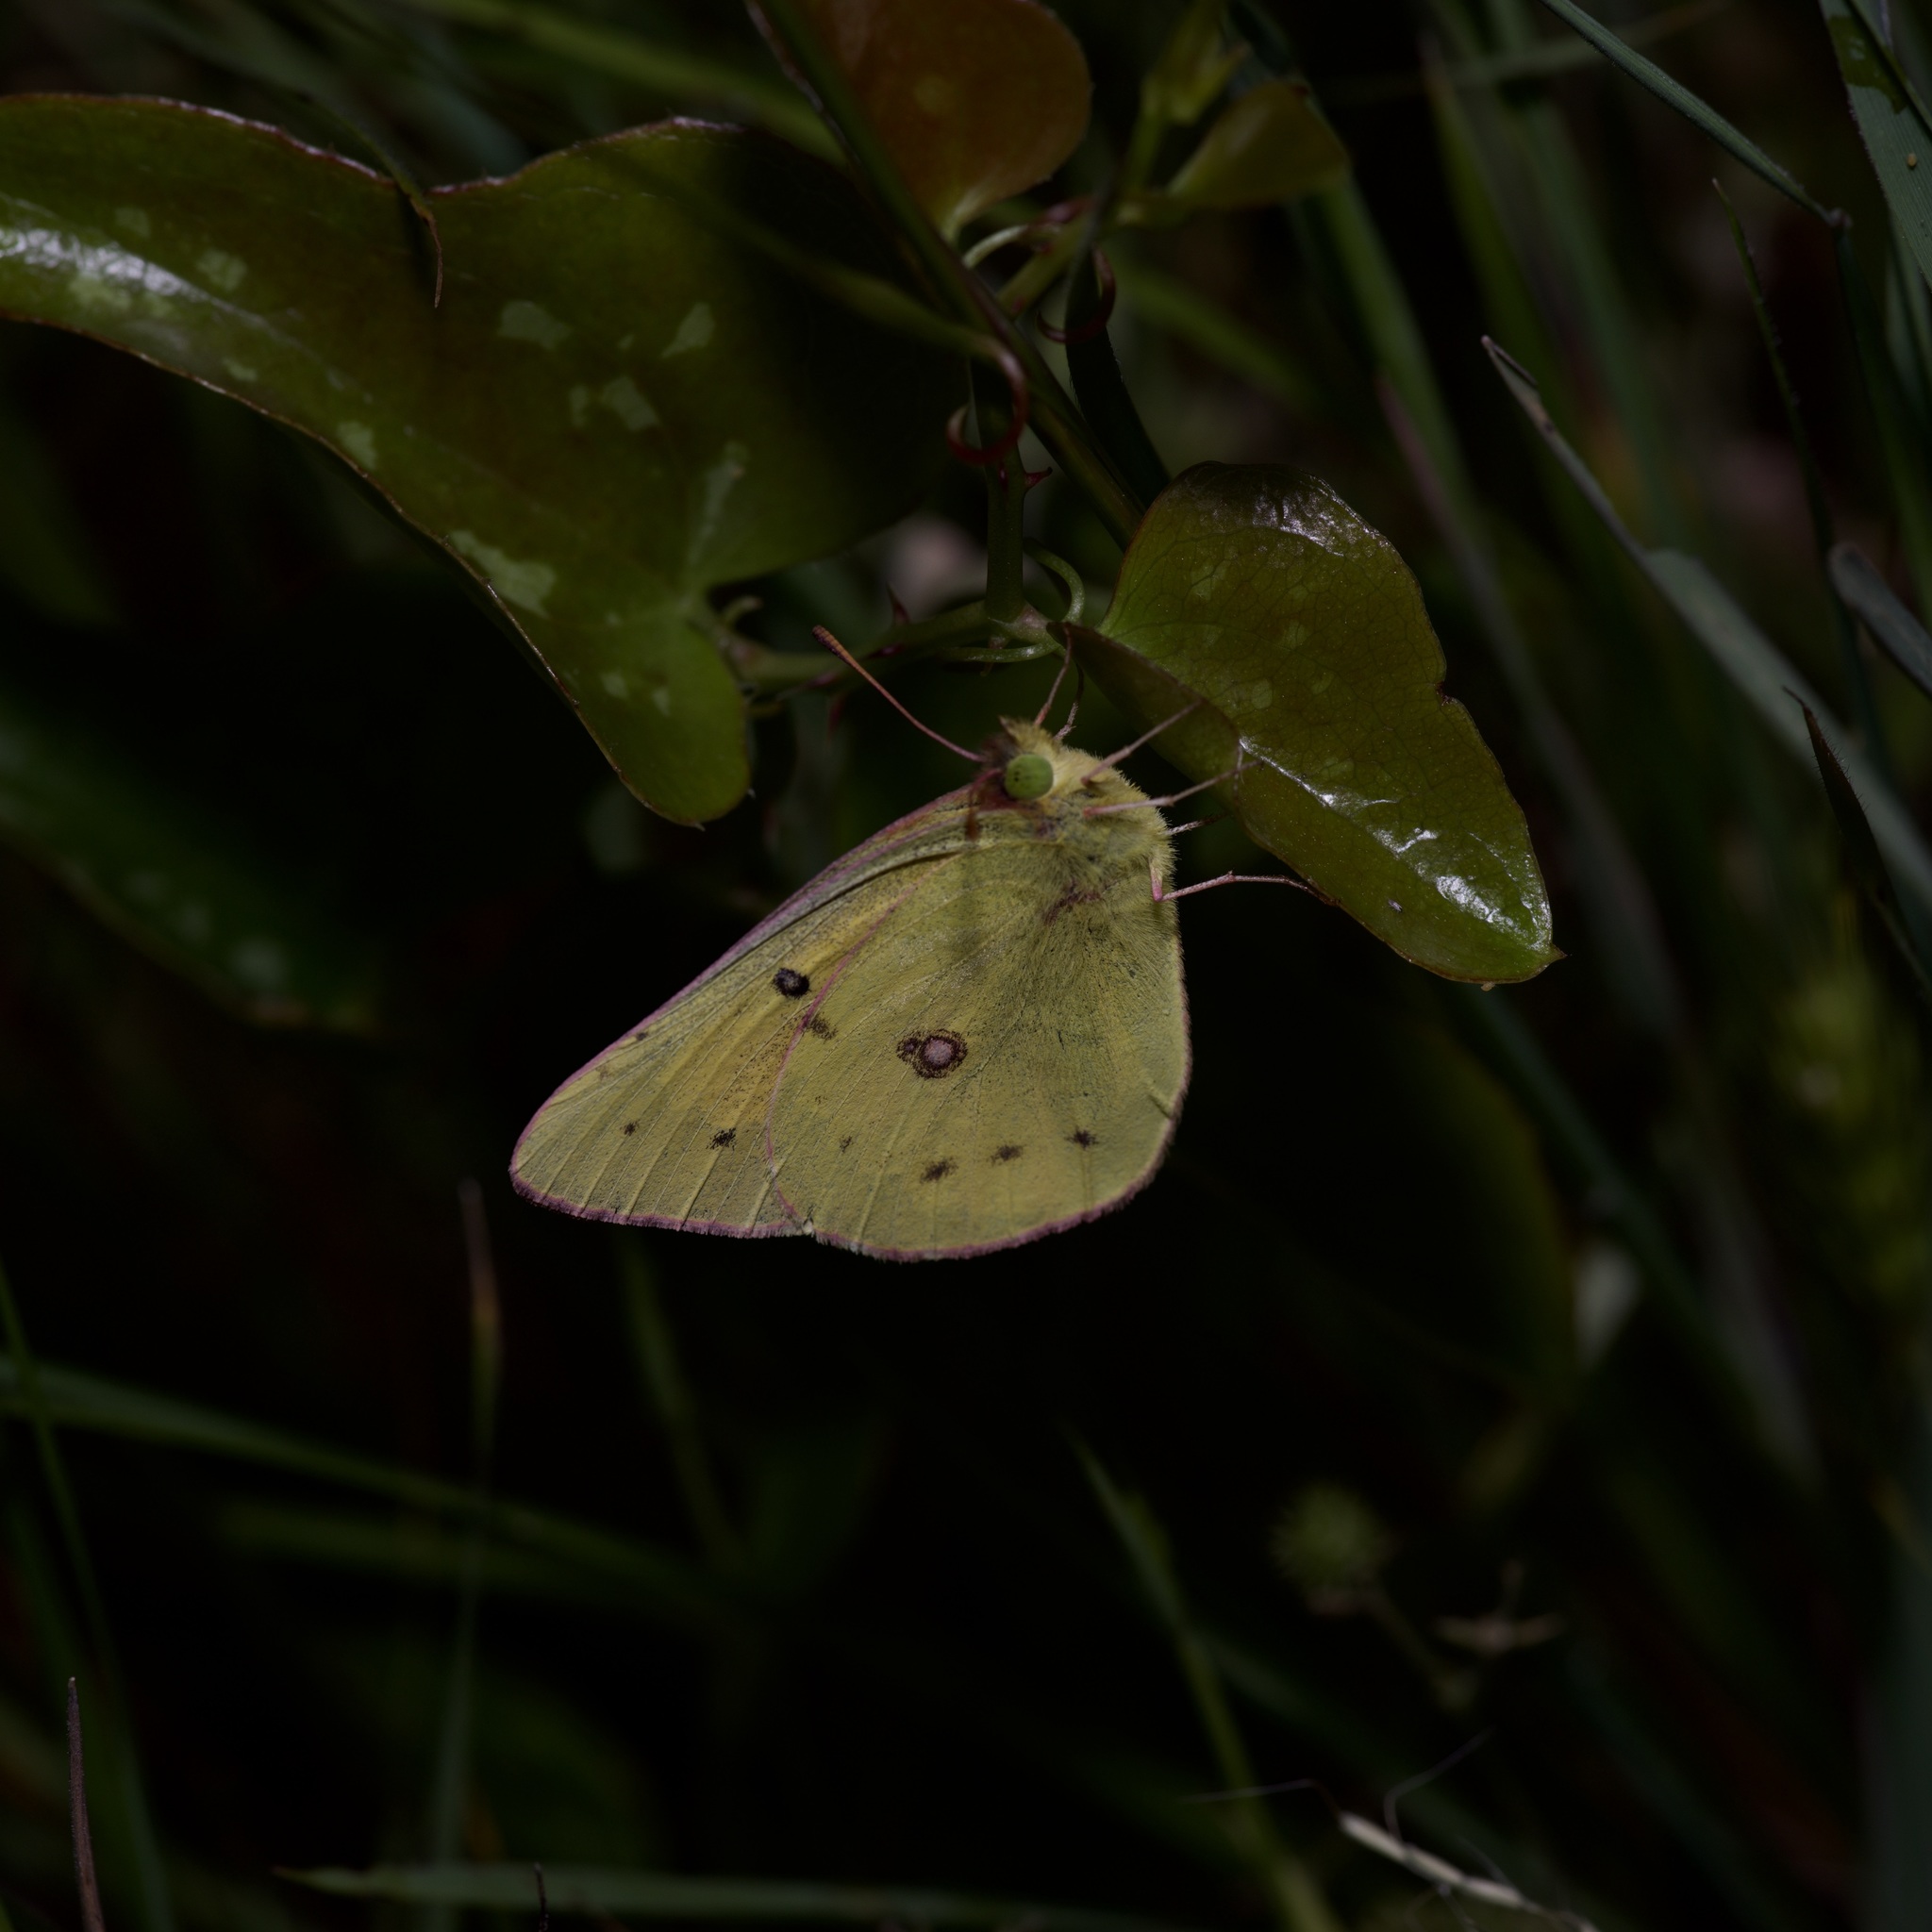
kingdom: Animalia
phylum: Arthropoda
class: Insecta
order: Lepidoptera
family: Pieridae
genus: Colias
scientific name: Colias eurytheme
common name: Alfalfa butterfly
